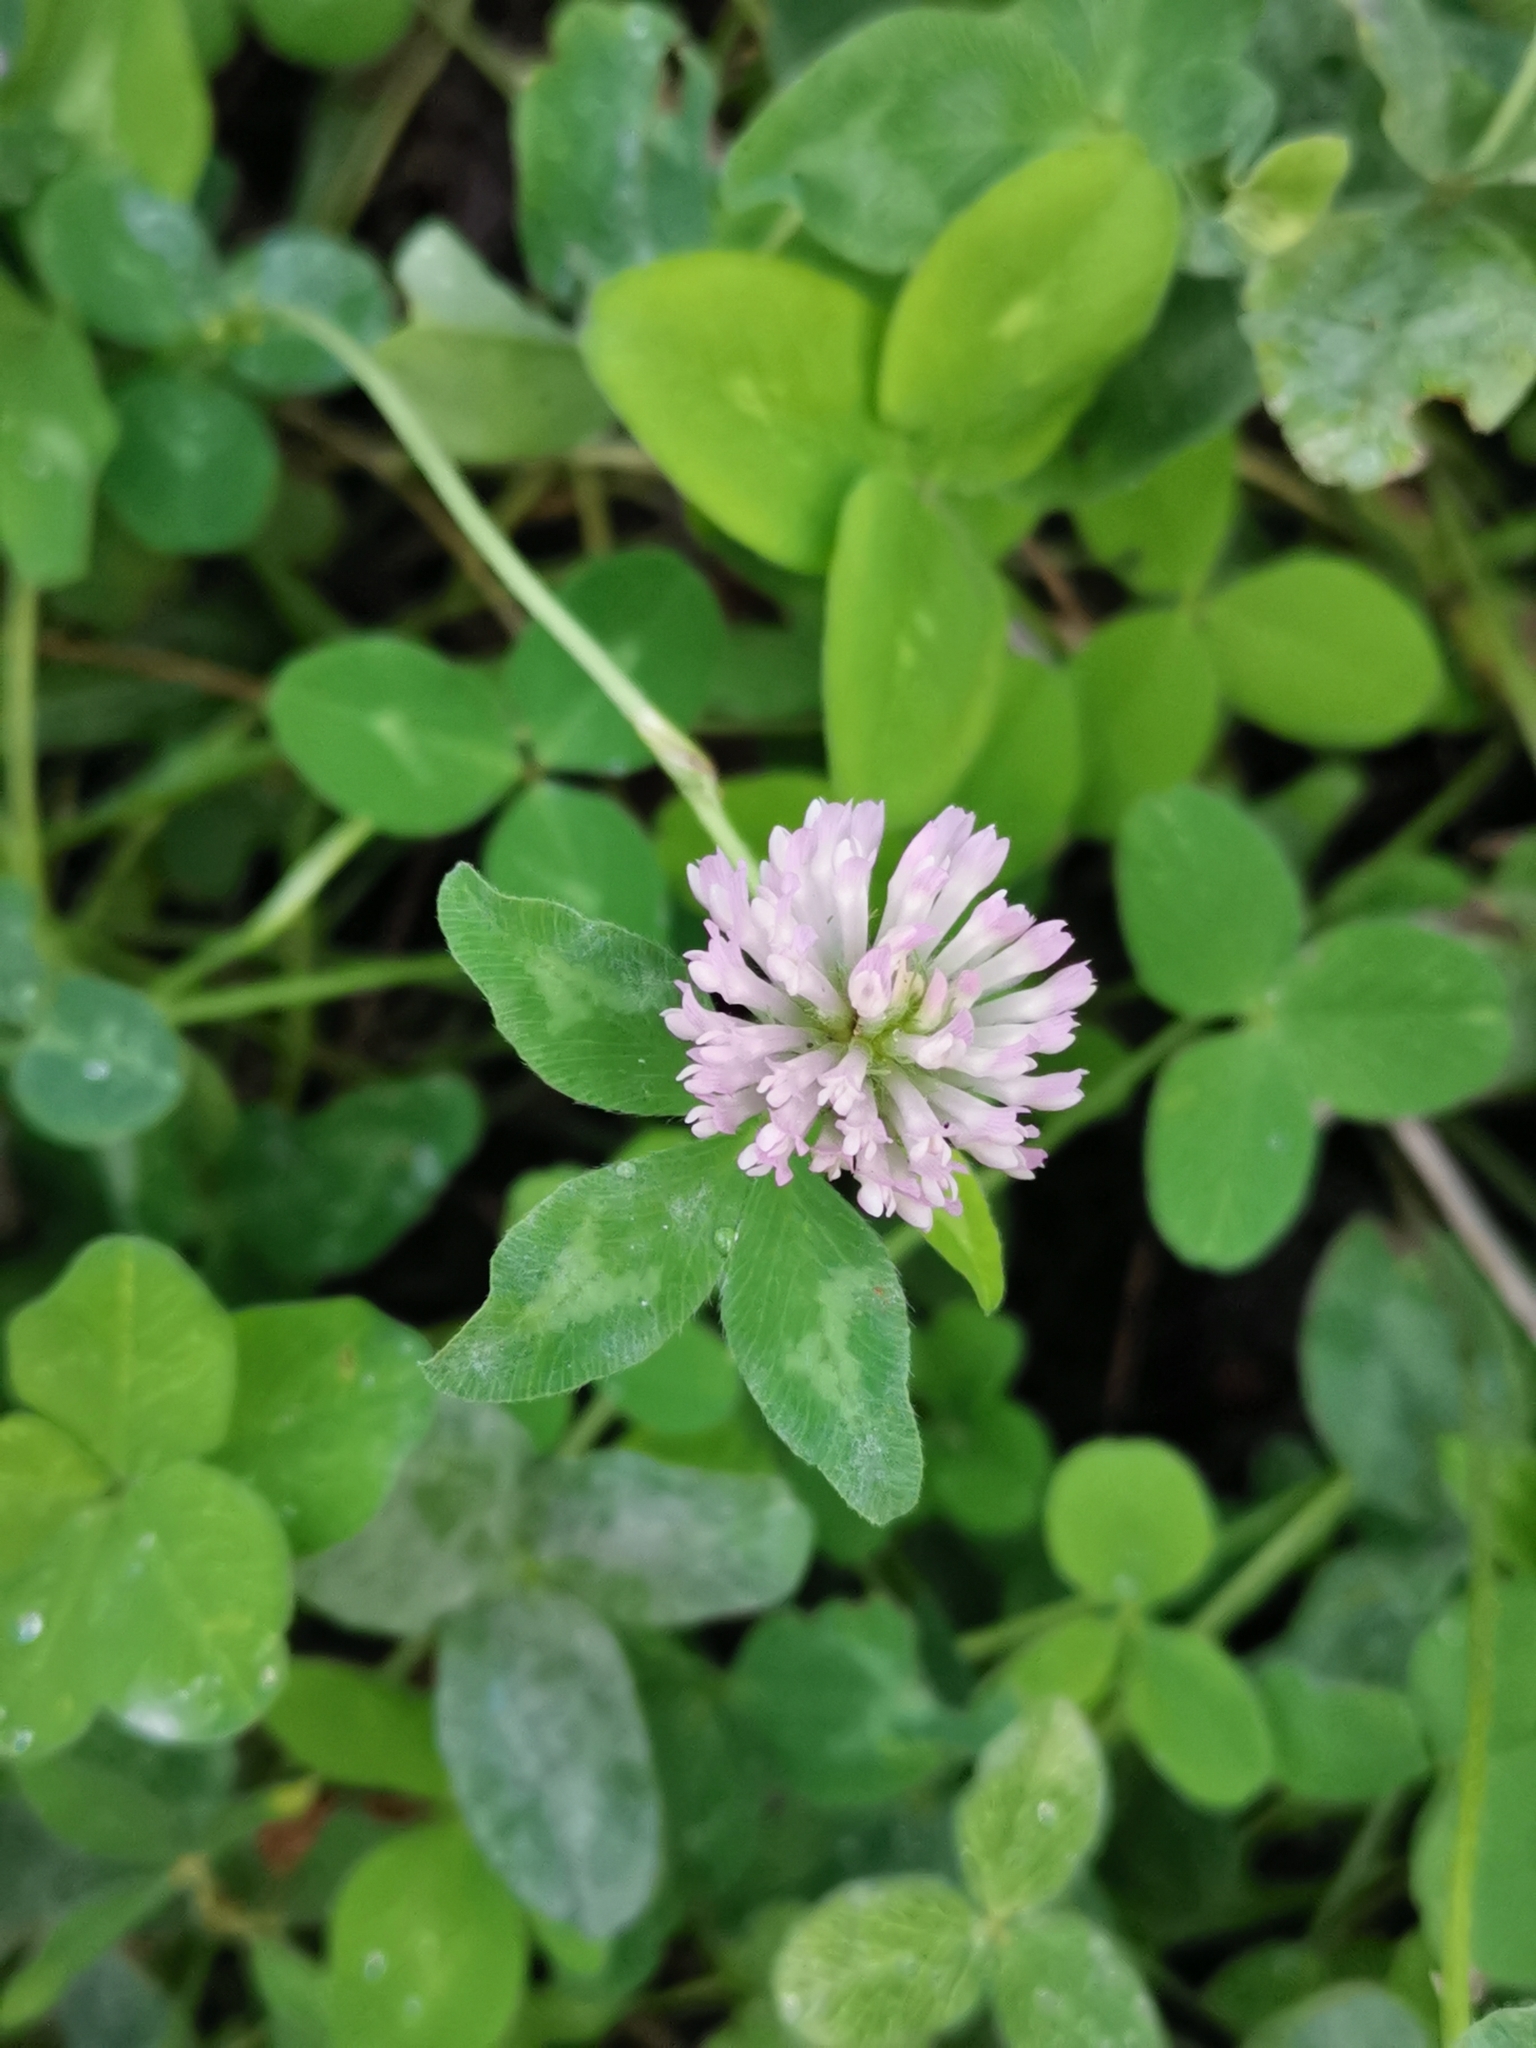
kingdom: Plantae
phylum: Tracheophyta
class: Magnoliopsida
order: Fabales
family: Fabaceae
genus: Trifolium
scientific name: Trifolium pratense
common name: Red clover
